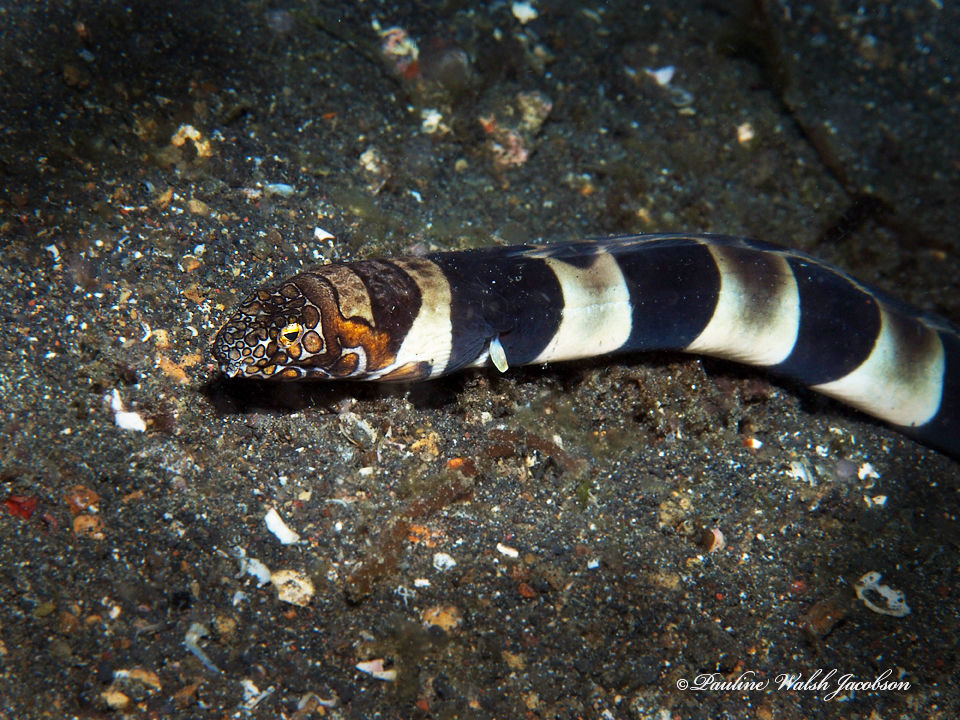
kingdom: Animalia
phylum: Chordata
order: Anguilliformes
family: Ophichthidae
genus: Ophichthus
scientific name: Ophichthus bonaparti
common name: Napoleon snake eel
